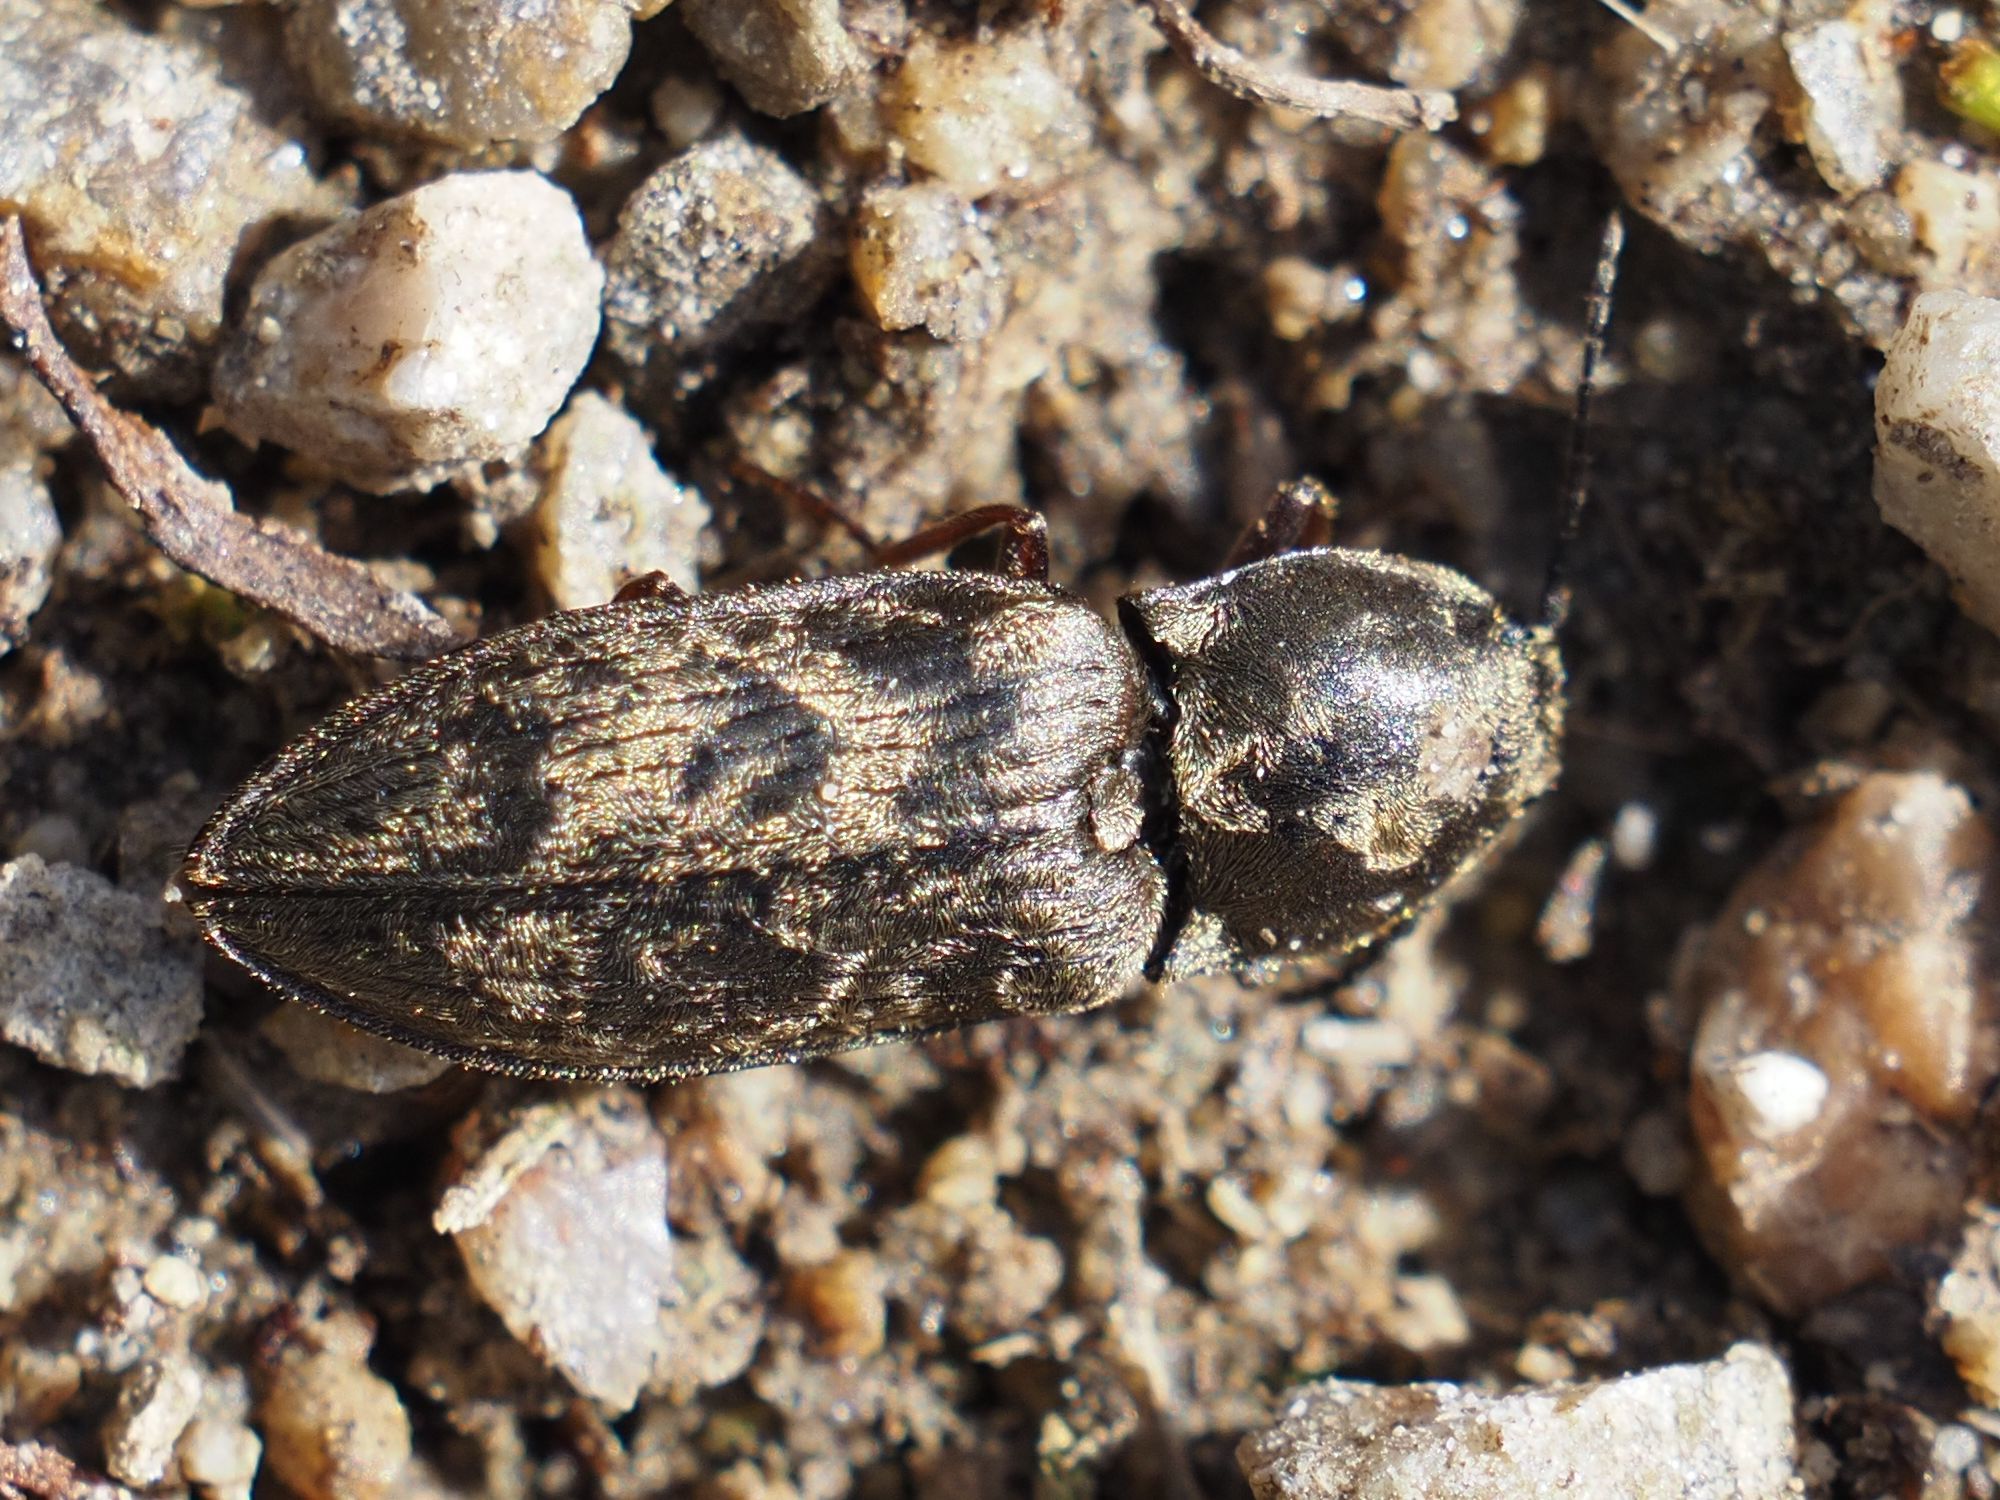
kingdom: Animalia
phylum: Arthropoda
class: Insecta
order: Coleoptera
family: Elateridae
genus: Prosternon
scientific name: Prosternon tessellatum
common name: Chequered click beetle
